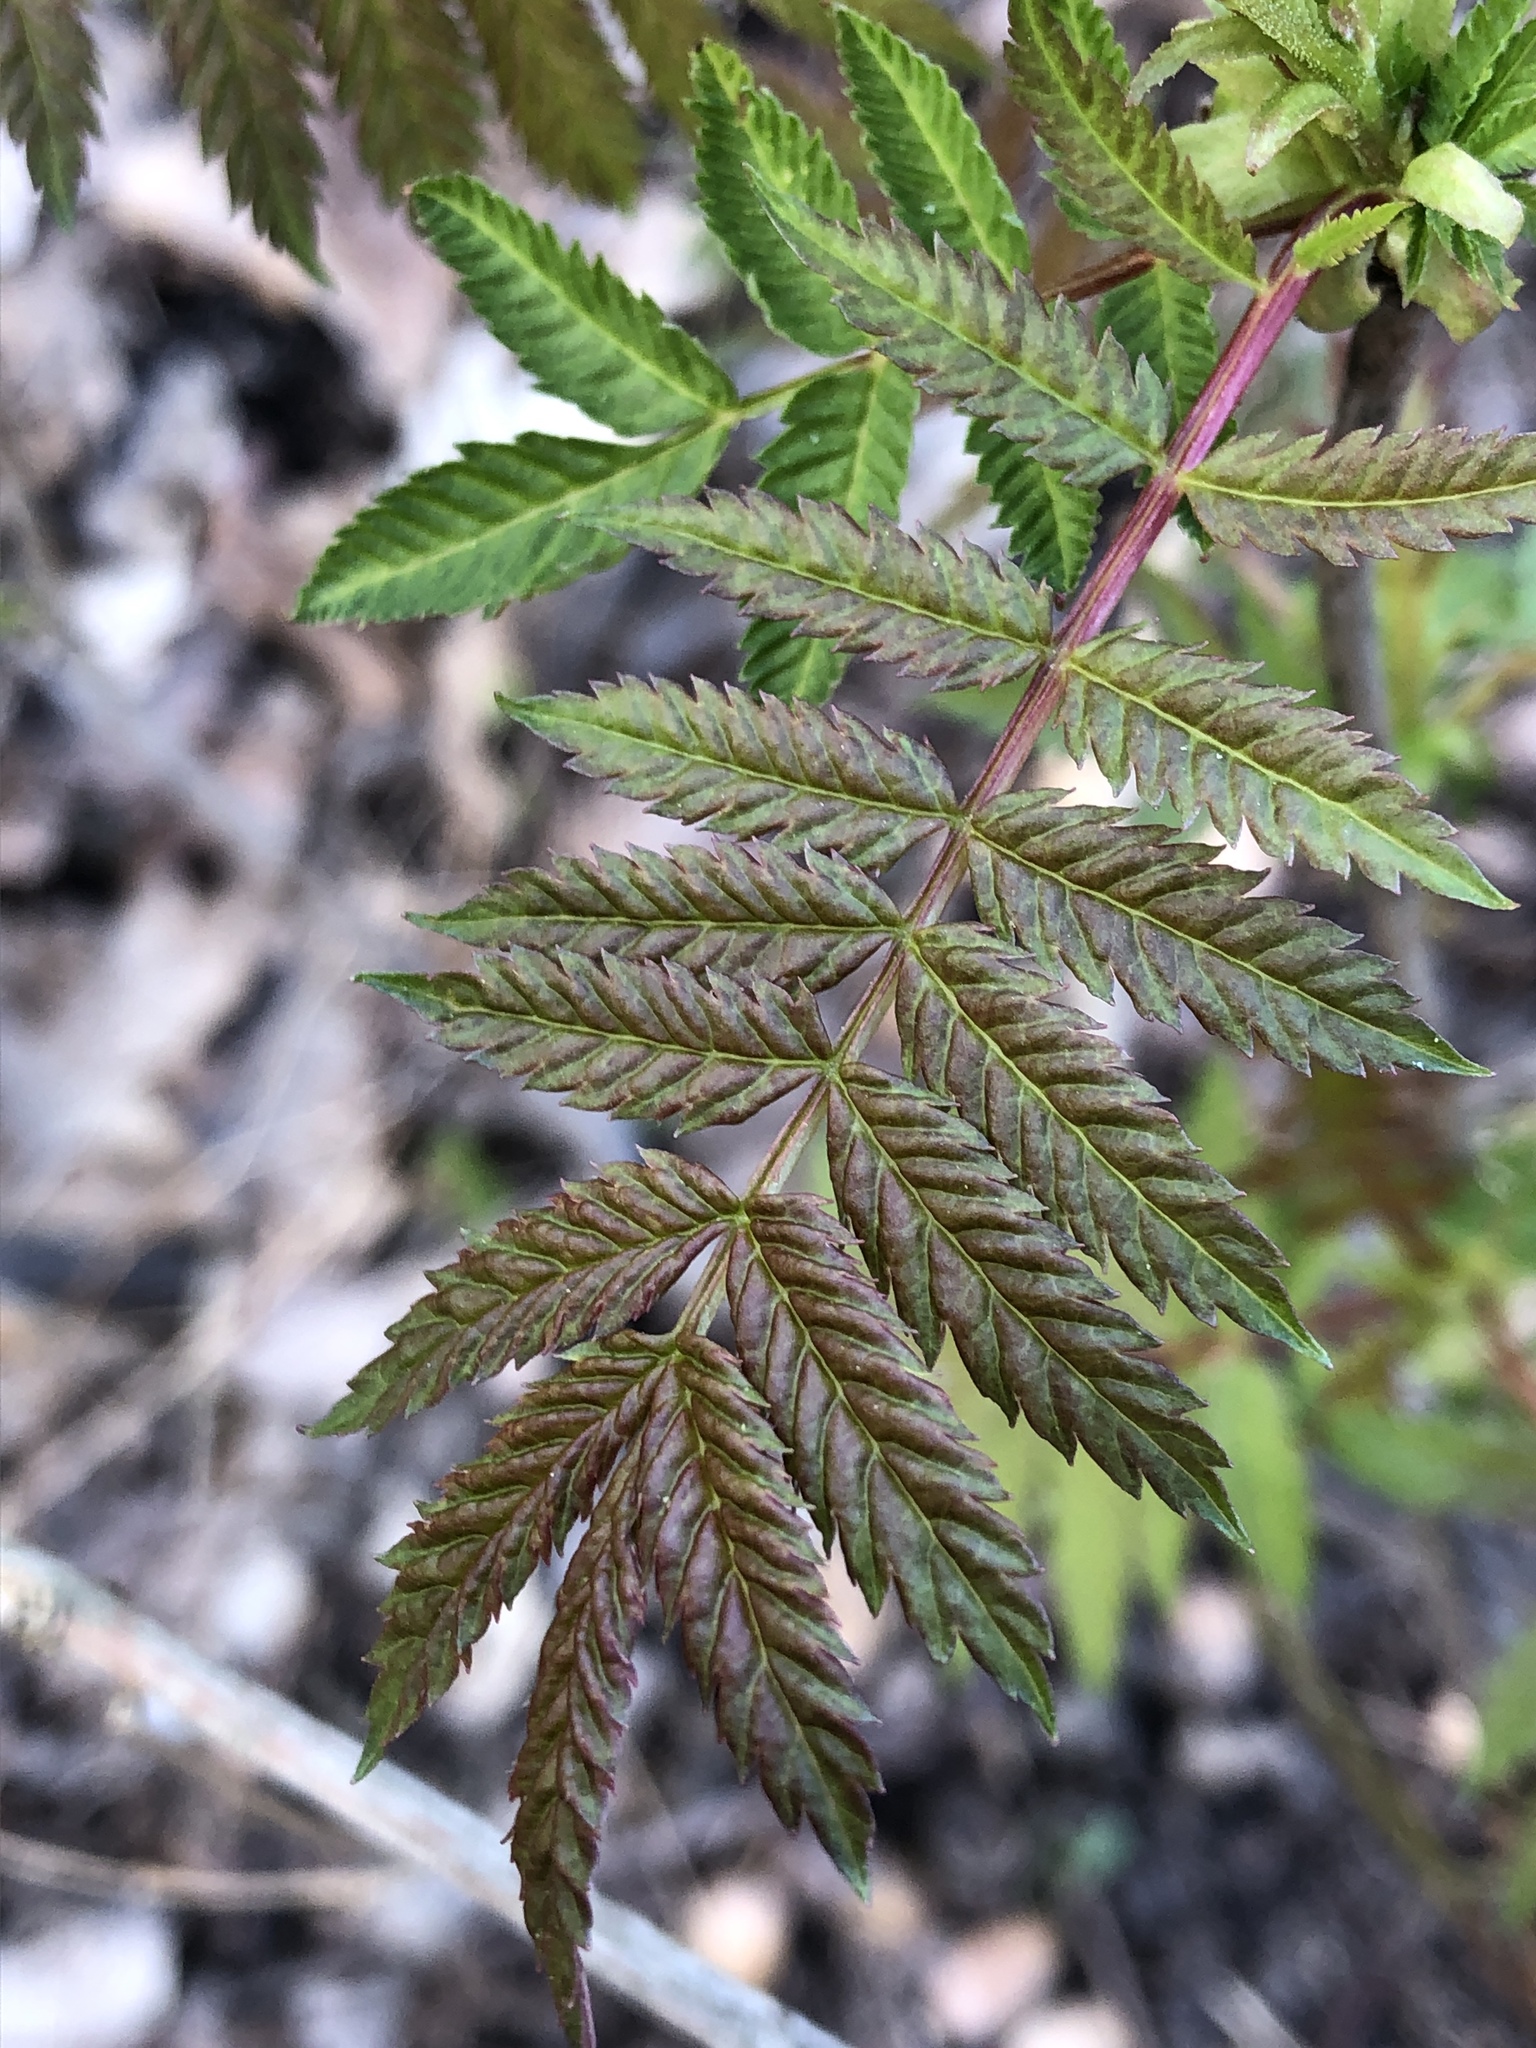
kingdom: Plantae
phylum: Tracheophyta
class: Magnoliopsida
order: Rosales
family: Rosaceae
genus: Sorbus
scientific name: Sorbus aucuparia
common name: Rowan
